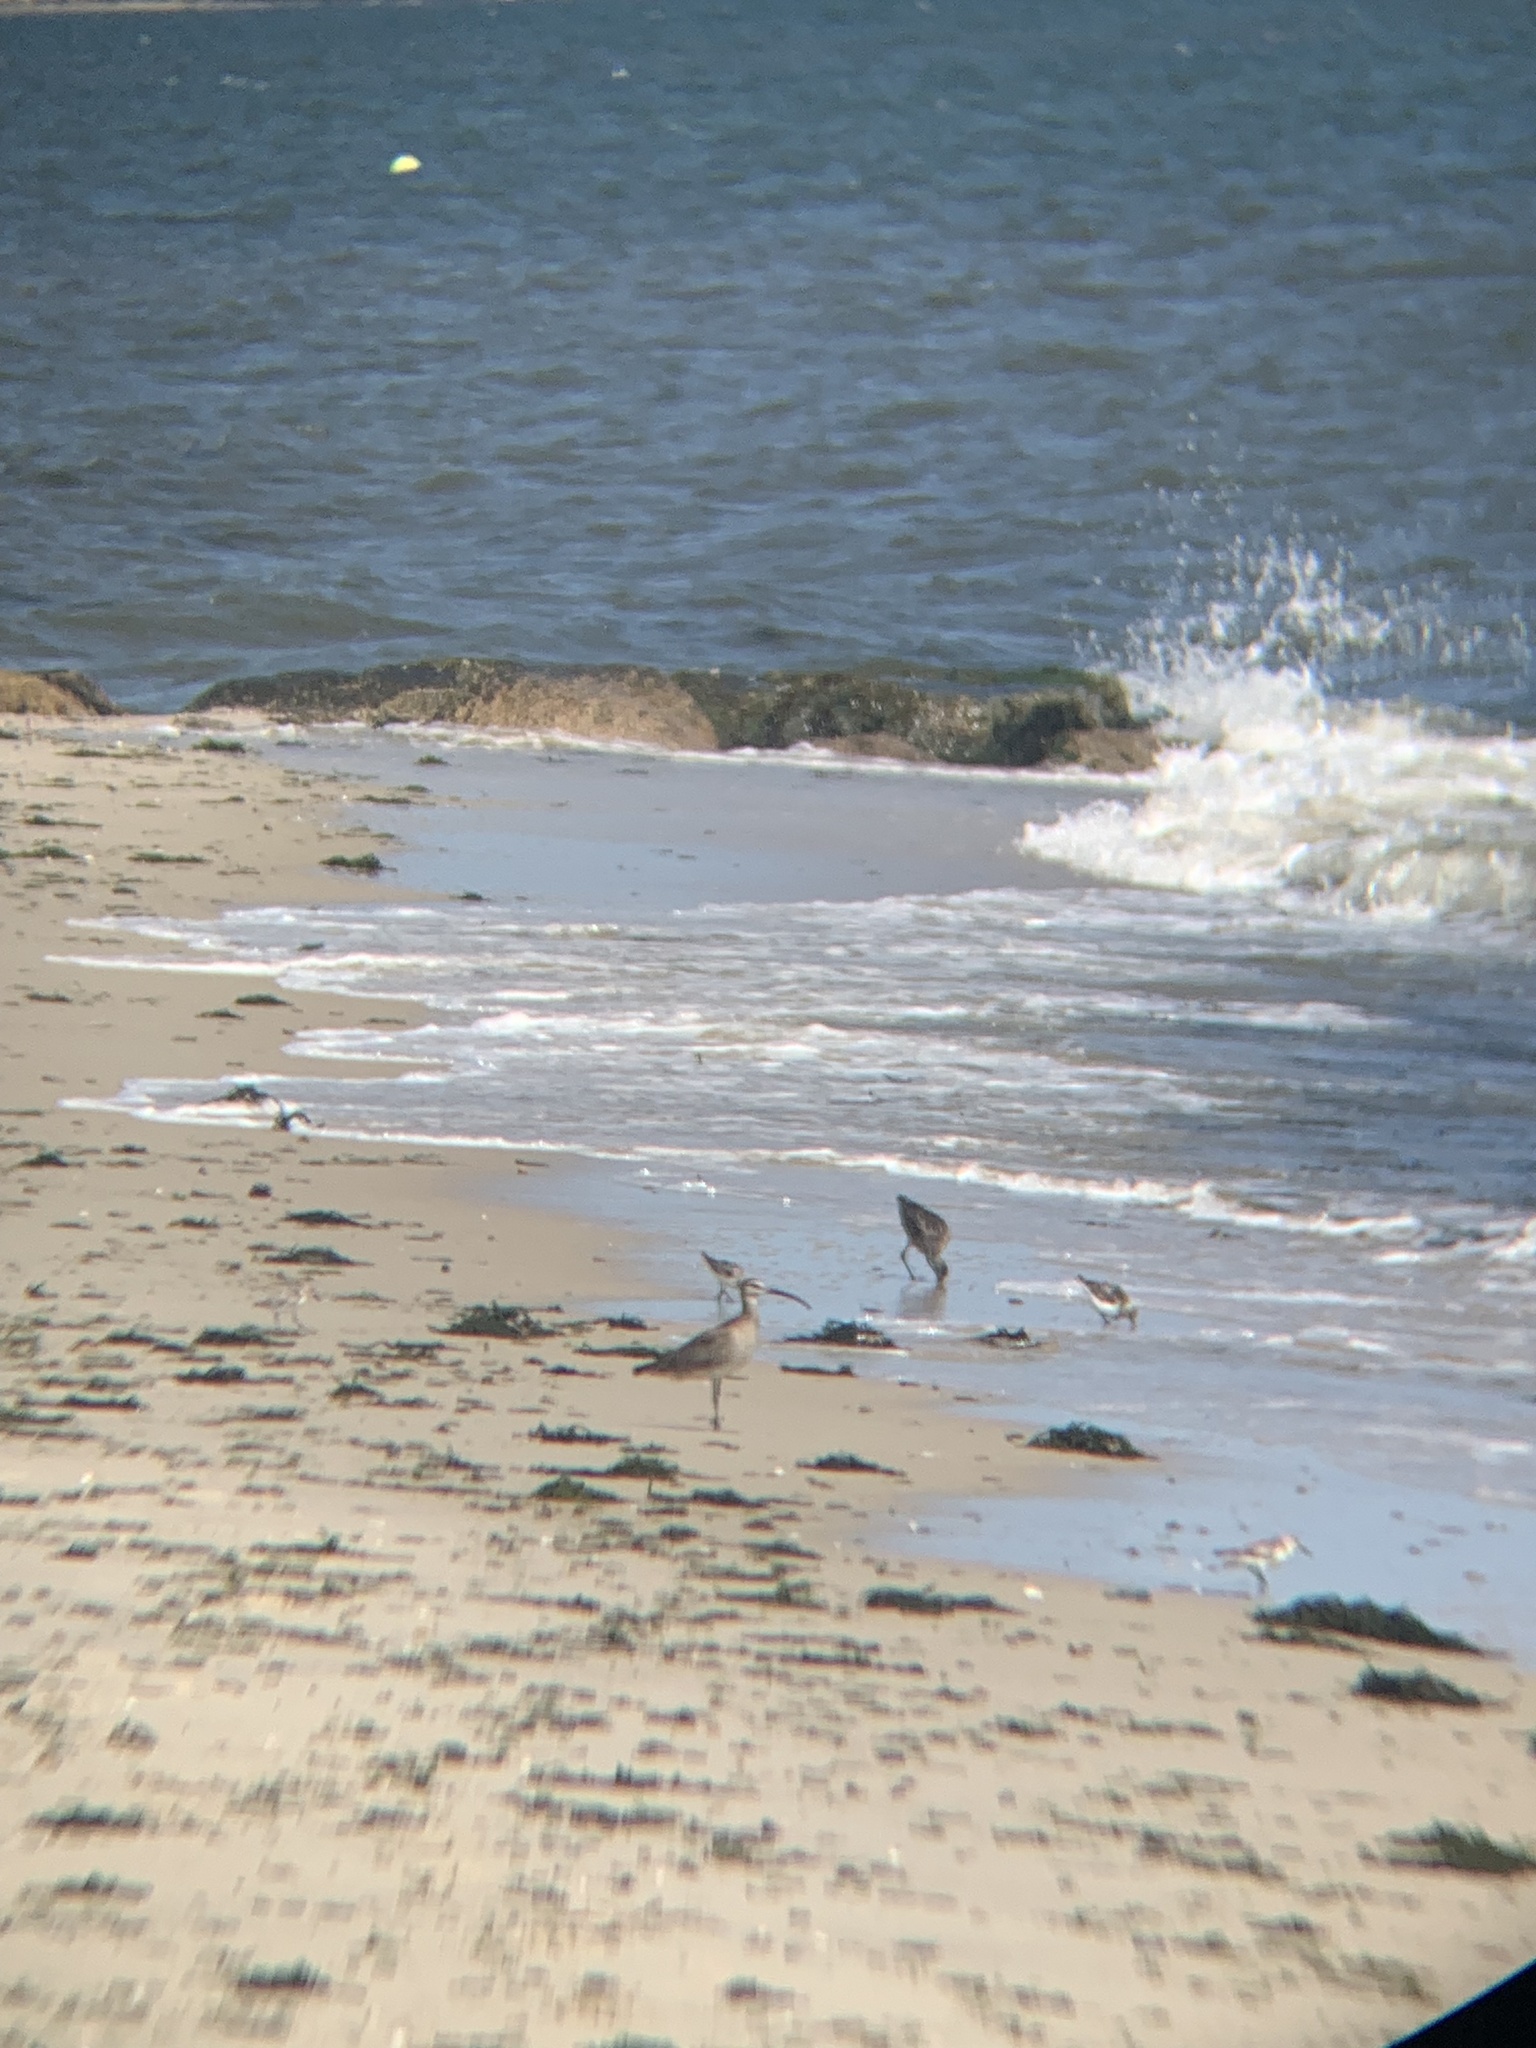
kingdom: Animalia
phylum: Chordata
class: Aves
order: Charadriiformes
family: Scolopacidae
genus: Numenius
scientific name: Numenius phaeopus
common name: Whimbrel
